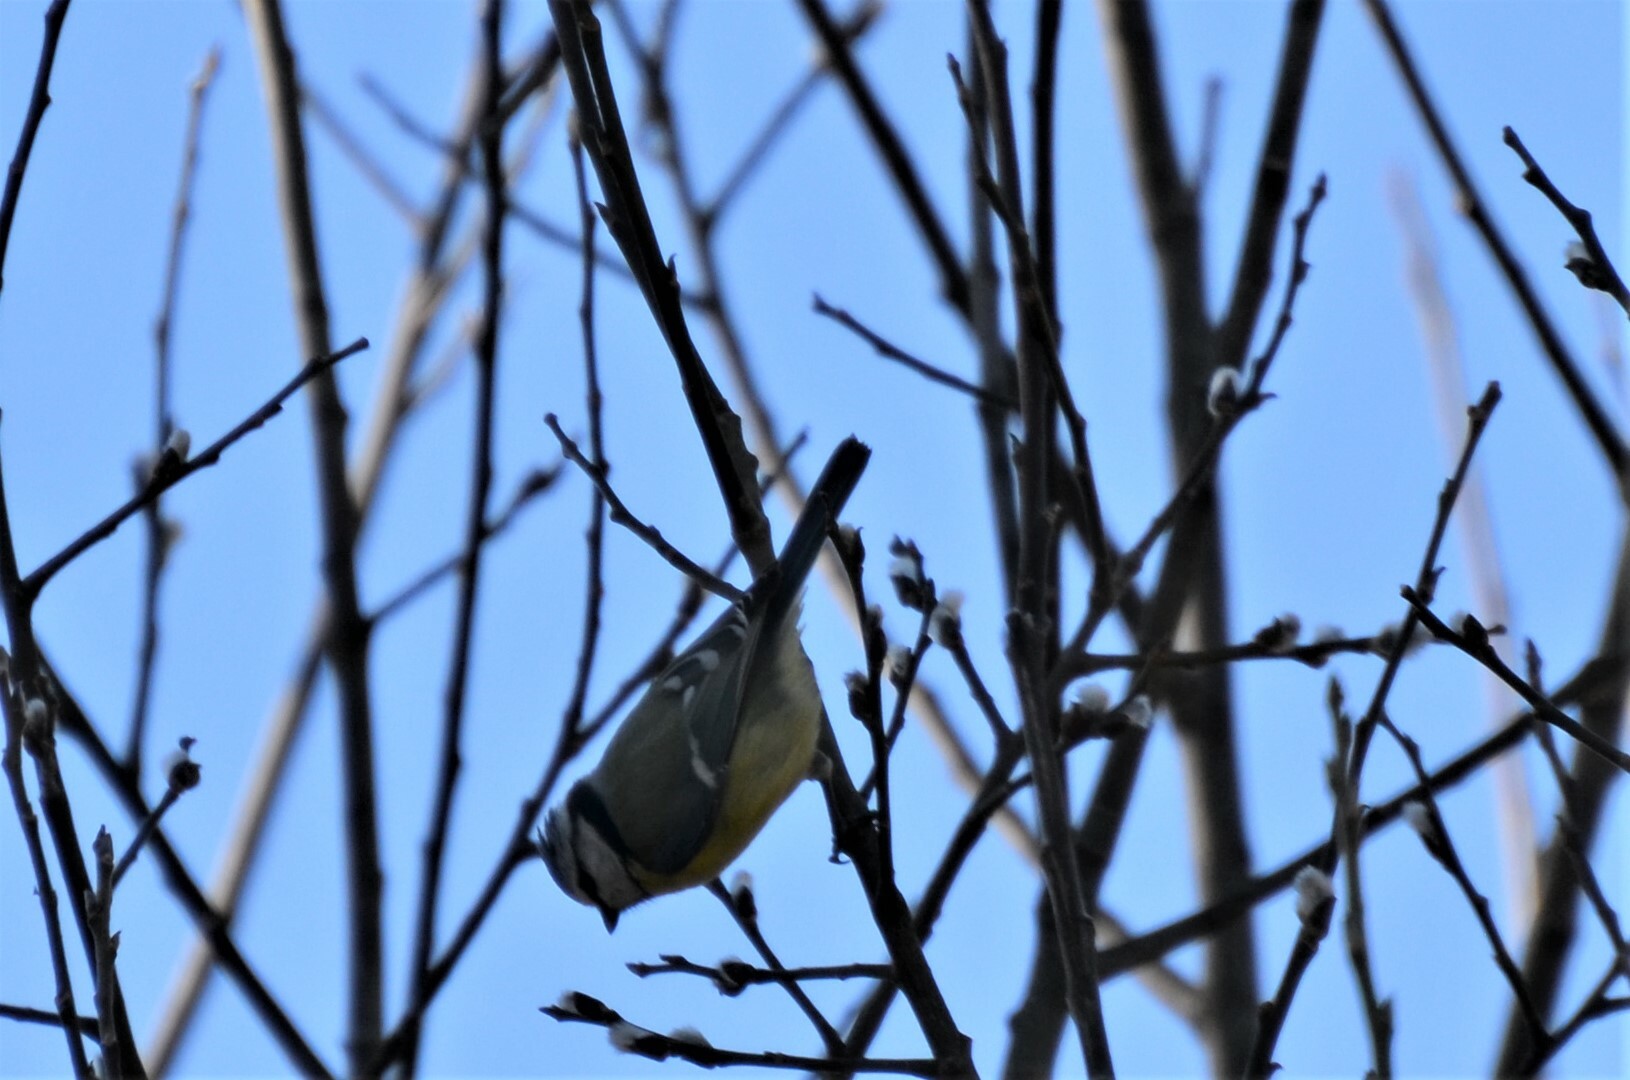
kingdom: Animalia
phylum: Chordata
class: Aves
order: Passeriformes
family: Paridae
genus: Cyanistes
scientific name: Cyanistes caeruleus
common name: Eurasian blue tit
